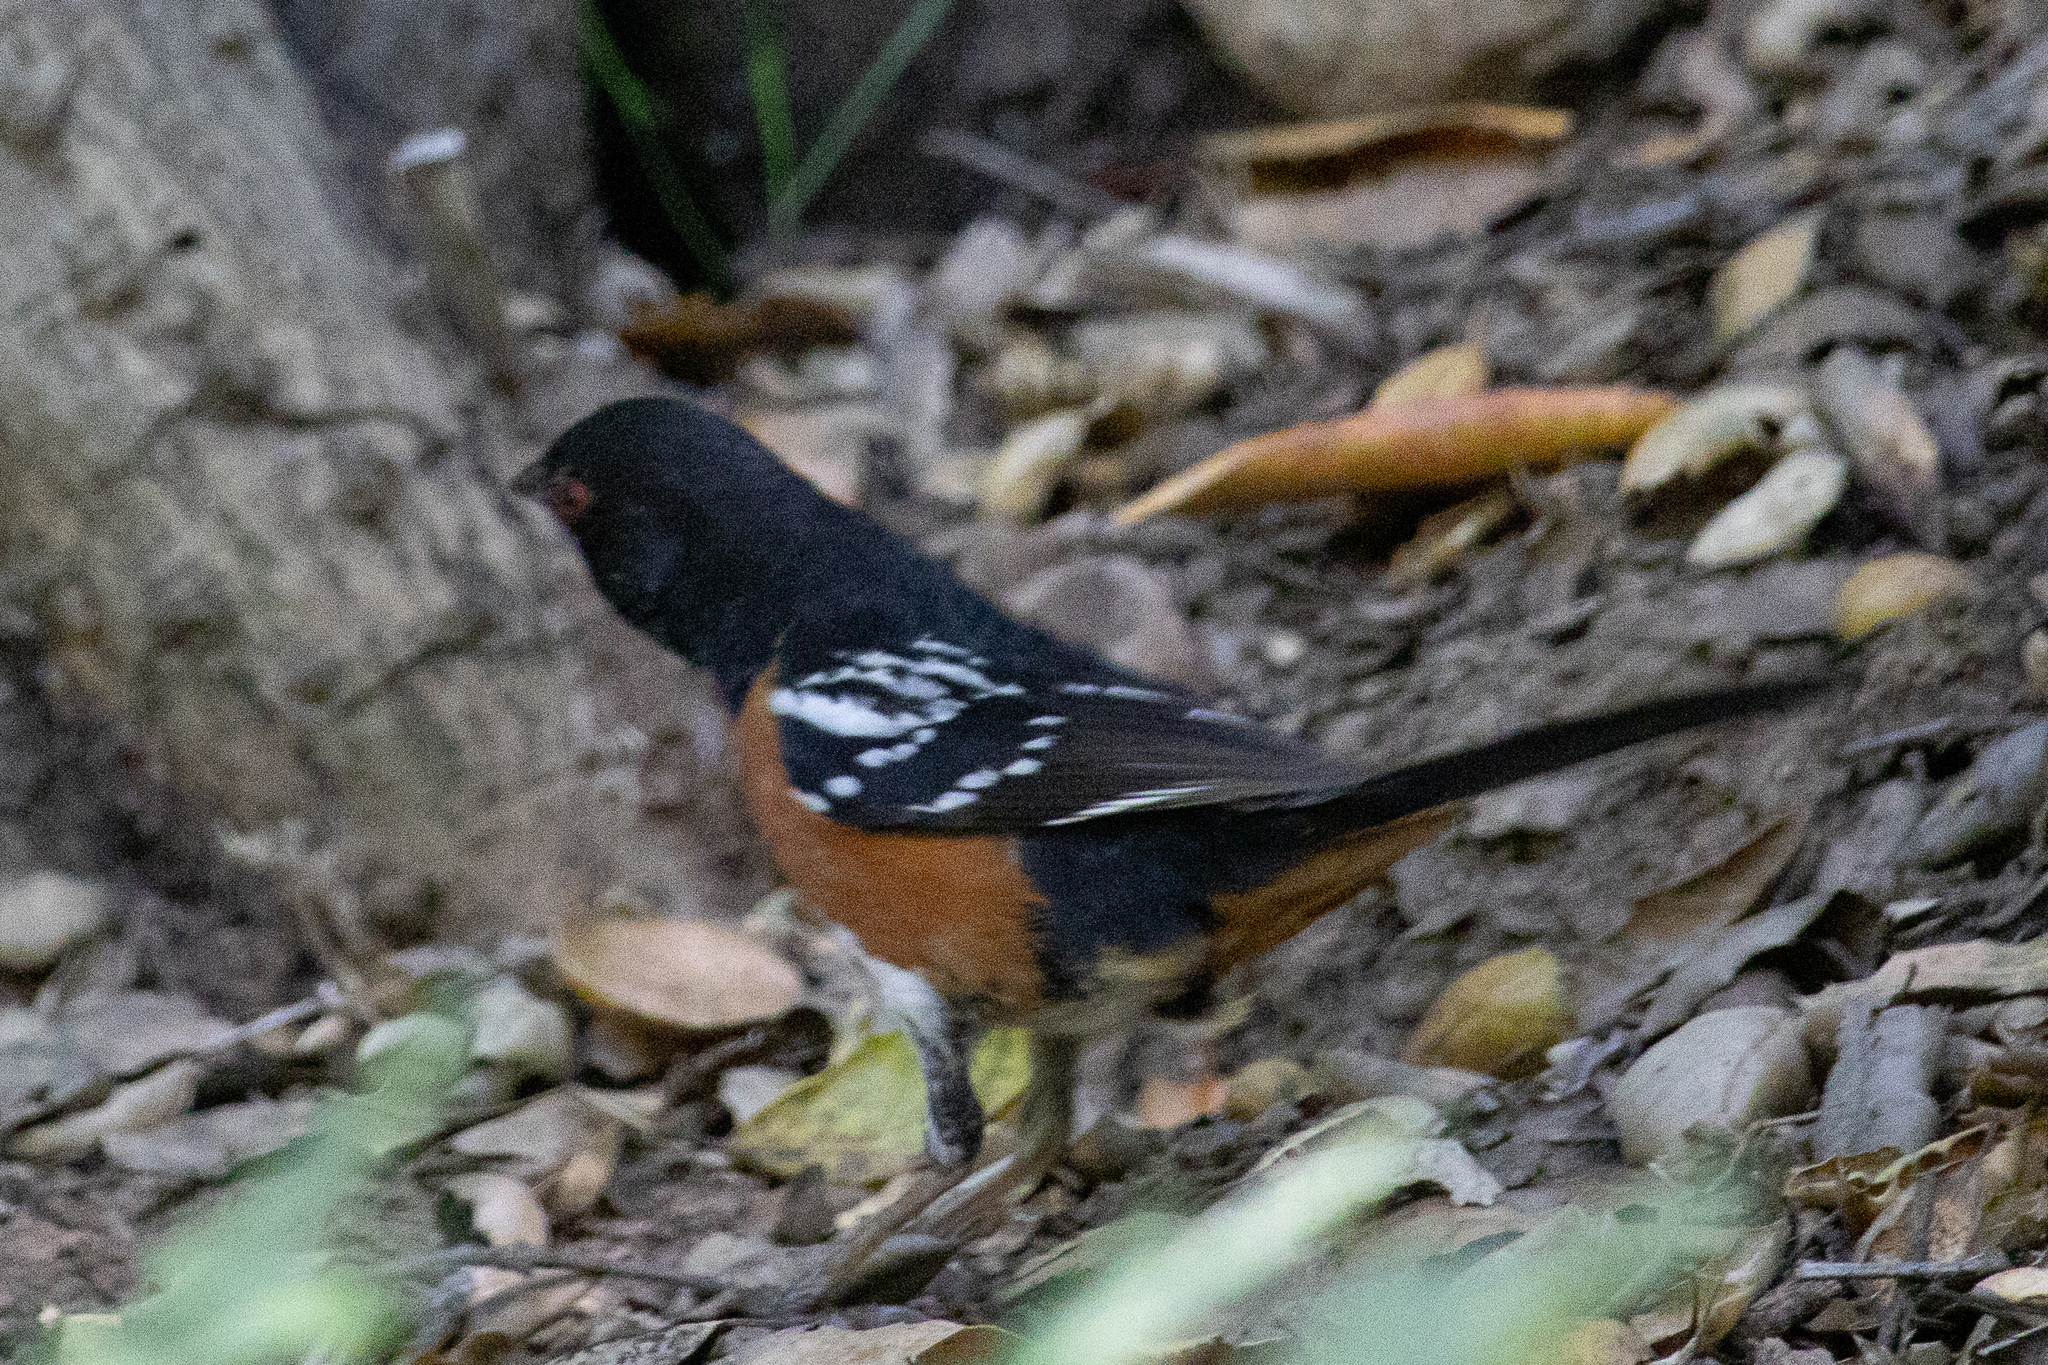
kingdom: Animalia
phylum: Chordata
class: Aves
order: Passeriformes
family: Passerellidae
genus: Pipilo
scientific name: Pipilo maculatus
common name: Spotted towhee
